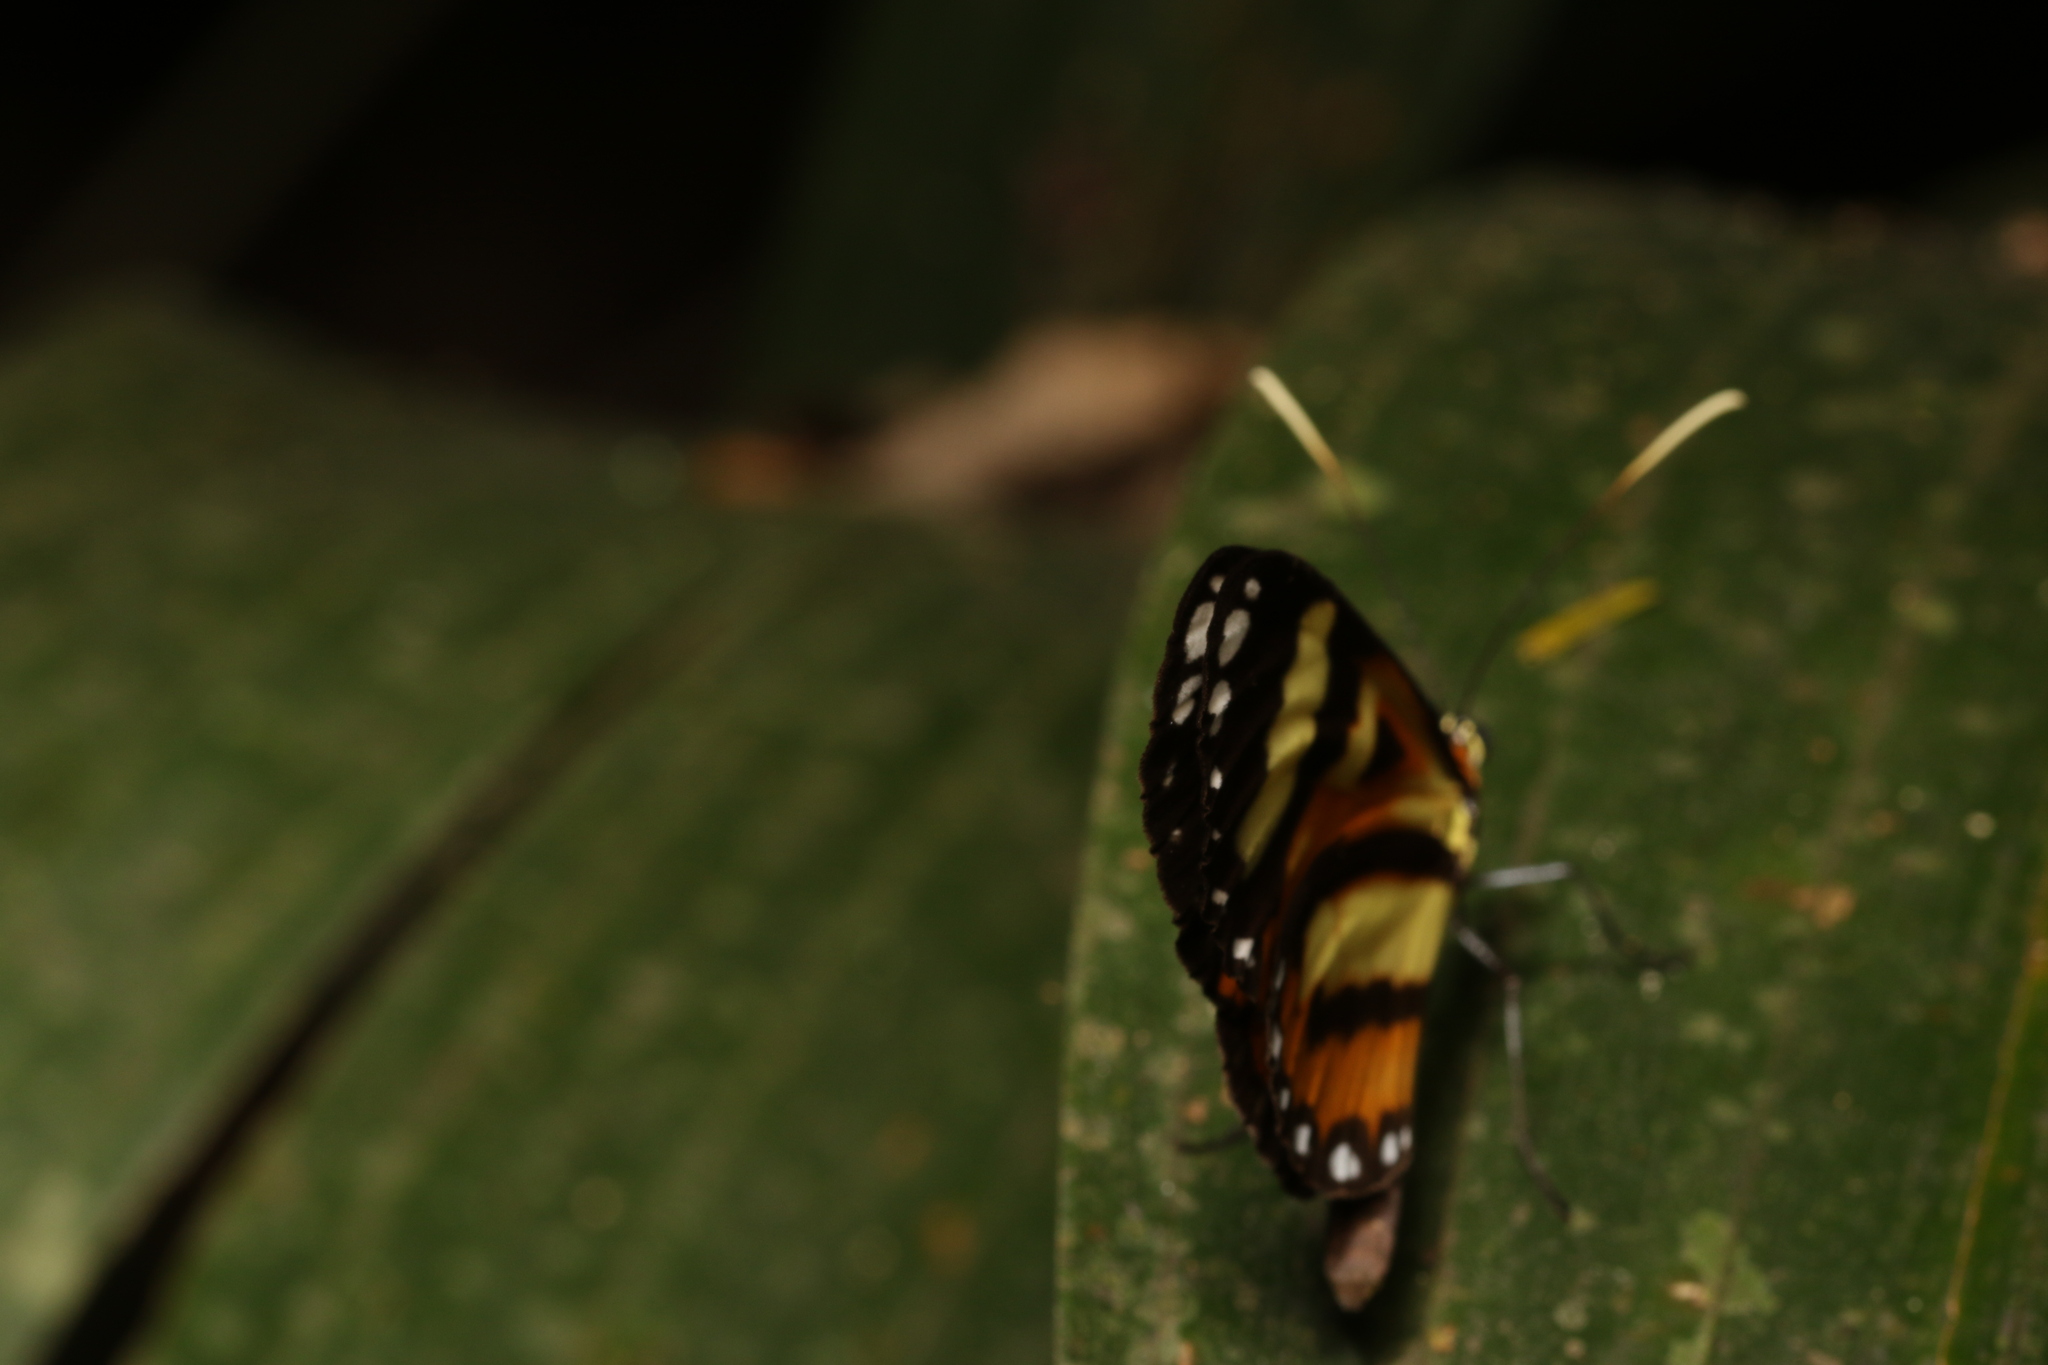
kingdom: Animalia
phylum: Arthropoda
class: Insecta
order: Lepidoptera
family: Nymphalidae
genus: Hypothyris
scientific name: Hypothyris ninonia
